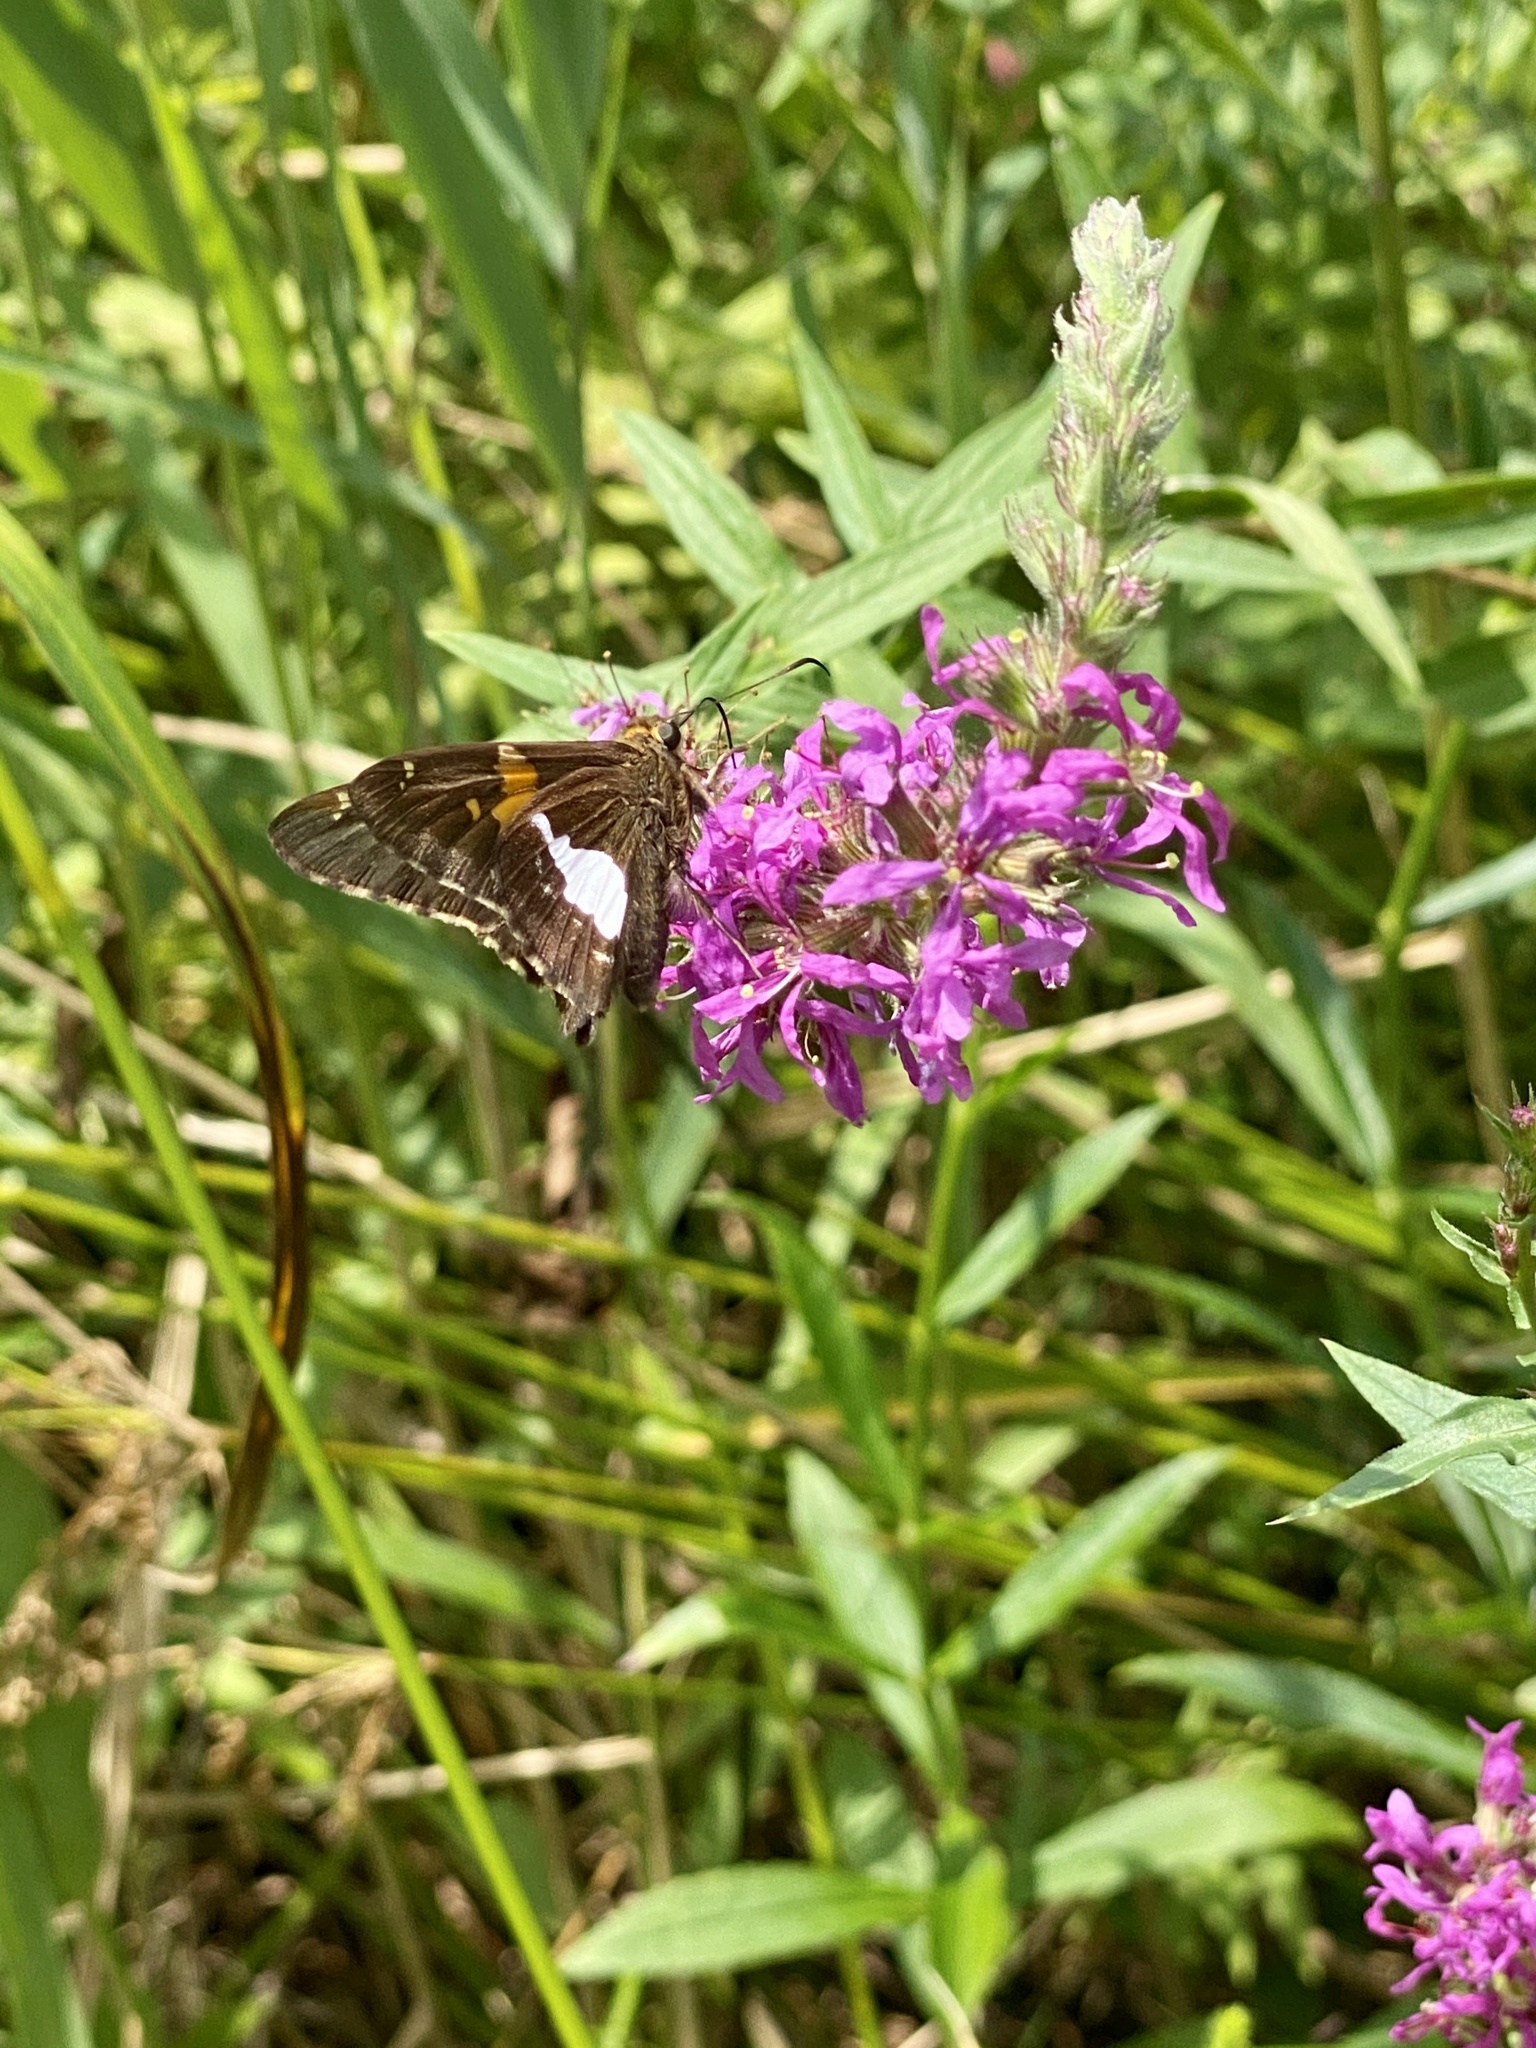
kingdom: Animalia
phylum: Arthropoda
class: Insecta
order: Lepidoptera
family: Hesperiidae
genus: Epargyreus
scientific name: Epargyreus clarus
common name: Silver-spotted skipper
